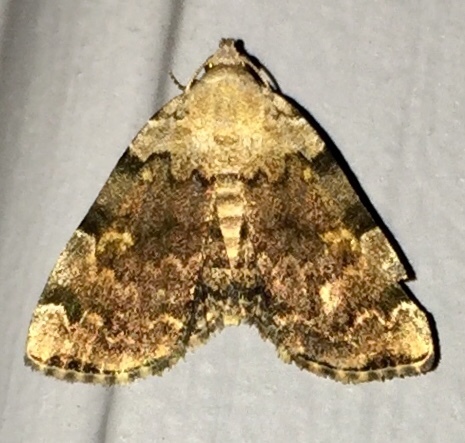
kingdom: Animalia
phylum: Arthropoda
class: Insecta
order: Lepidoptera
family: Erebidae
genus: Idia
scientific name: Idia americalis
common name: American idia moth
